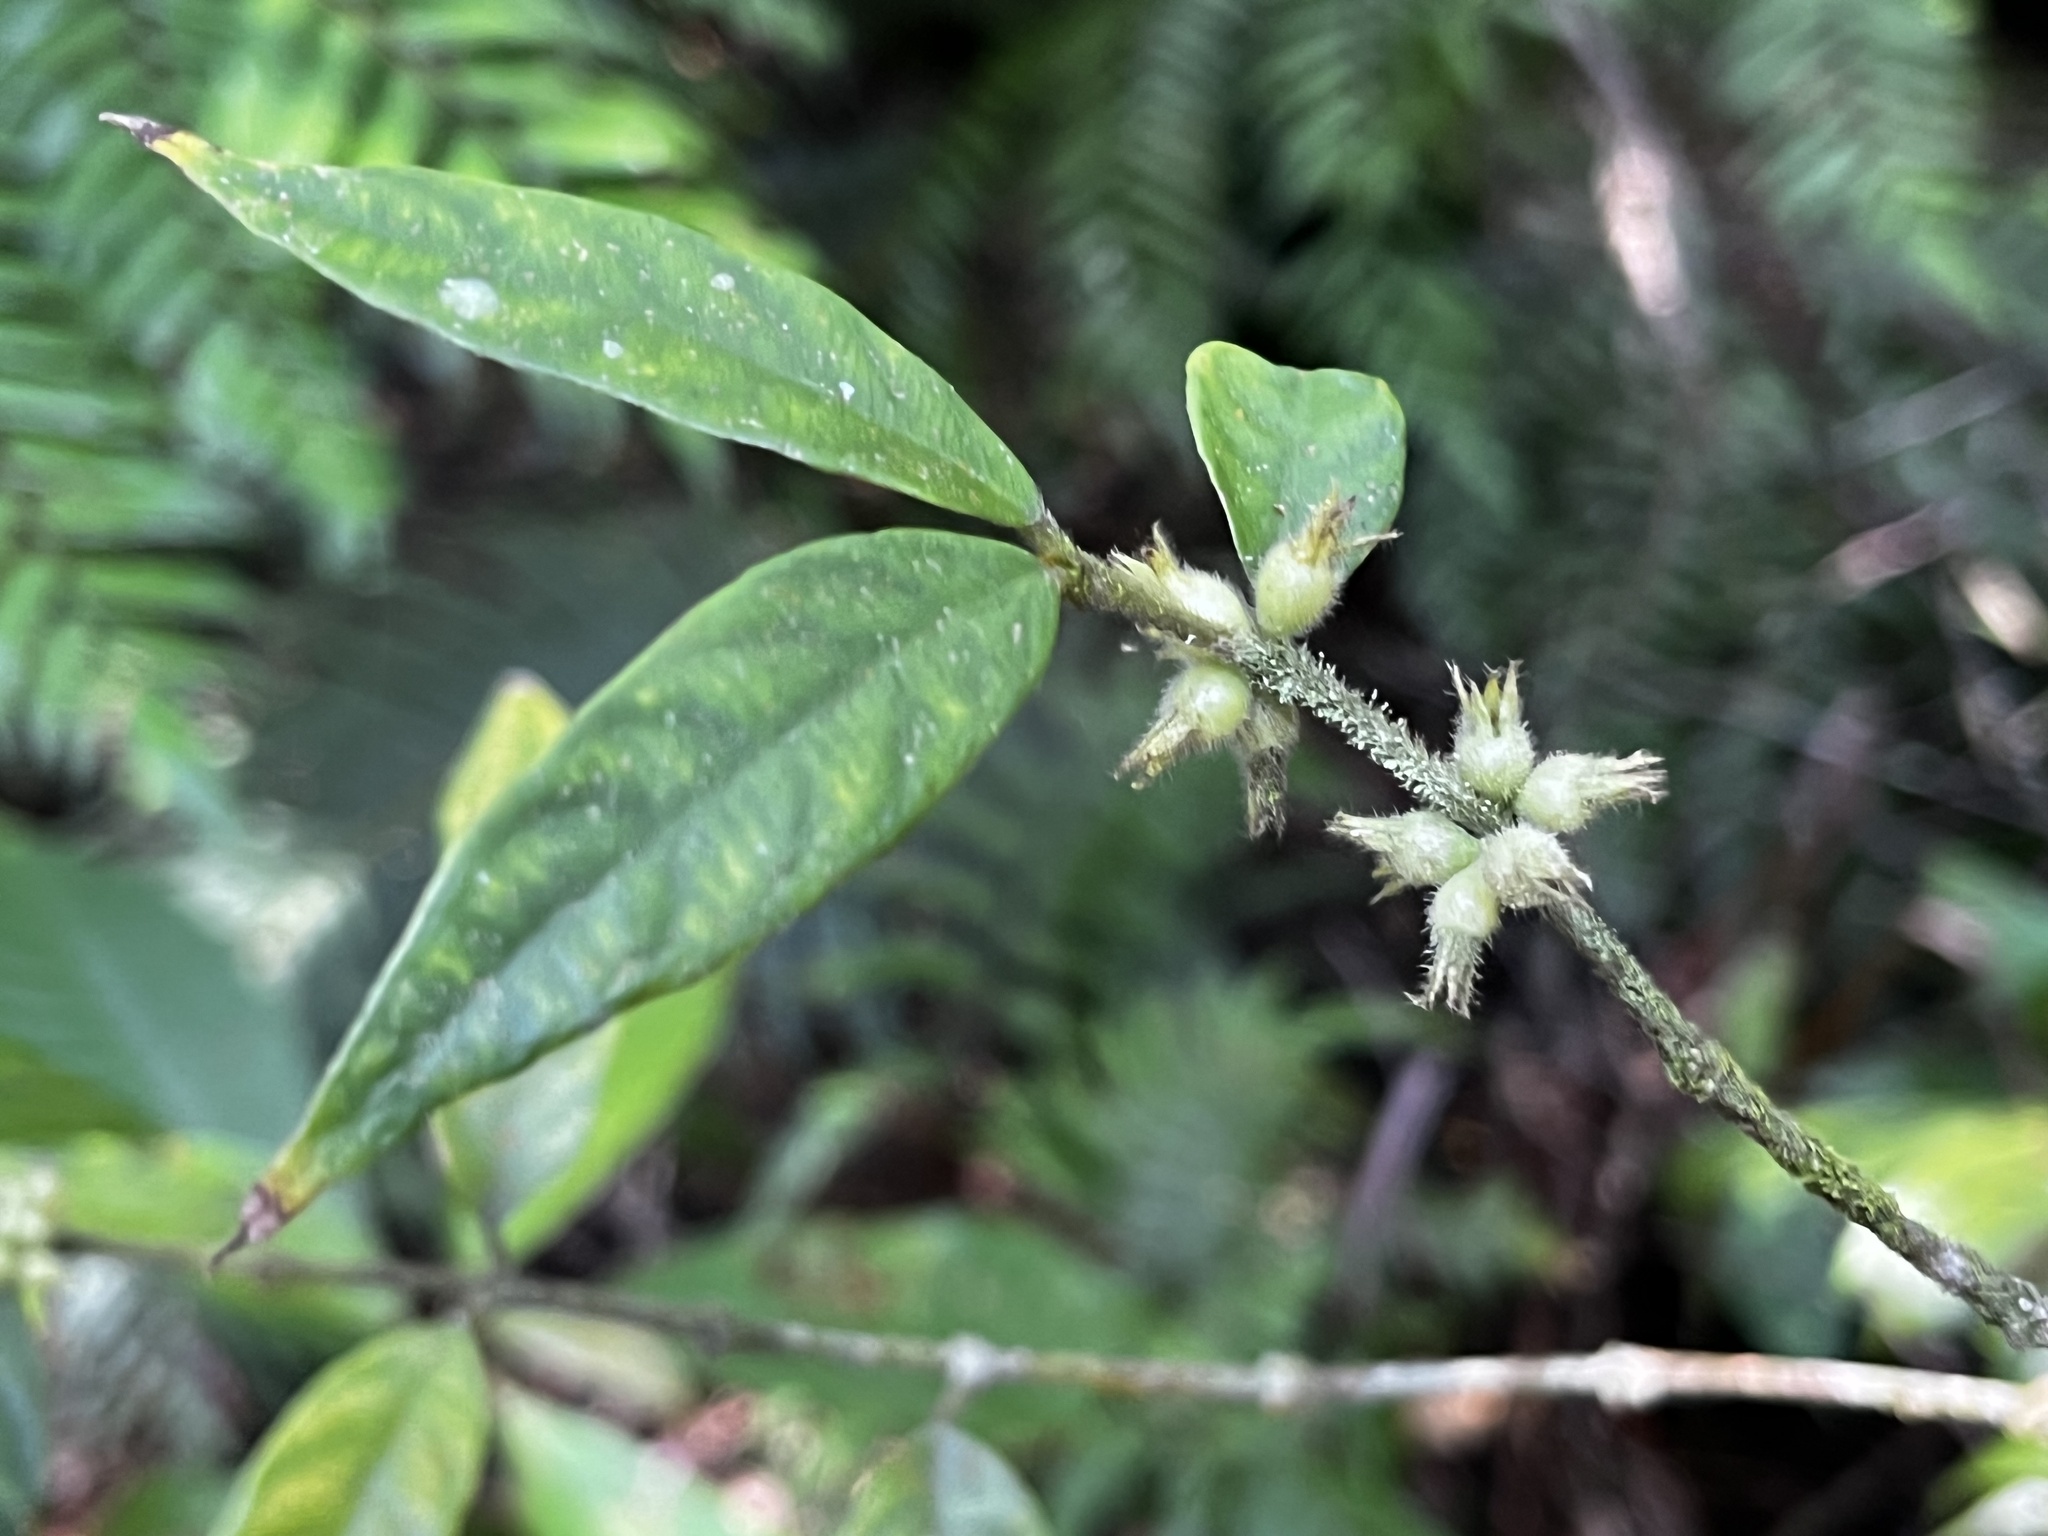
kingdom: Plantae
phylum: Tracheophyta
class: Magnoliopsida
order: Gentianales
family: Rubiaceae
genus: Lasianthus
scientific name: Lasianthus curtisii
